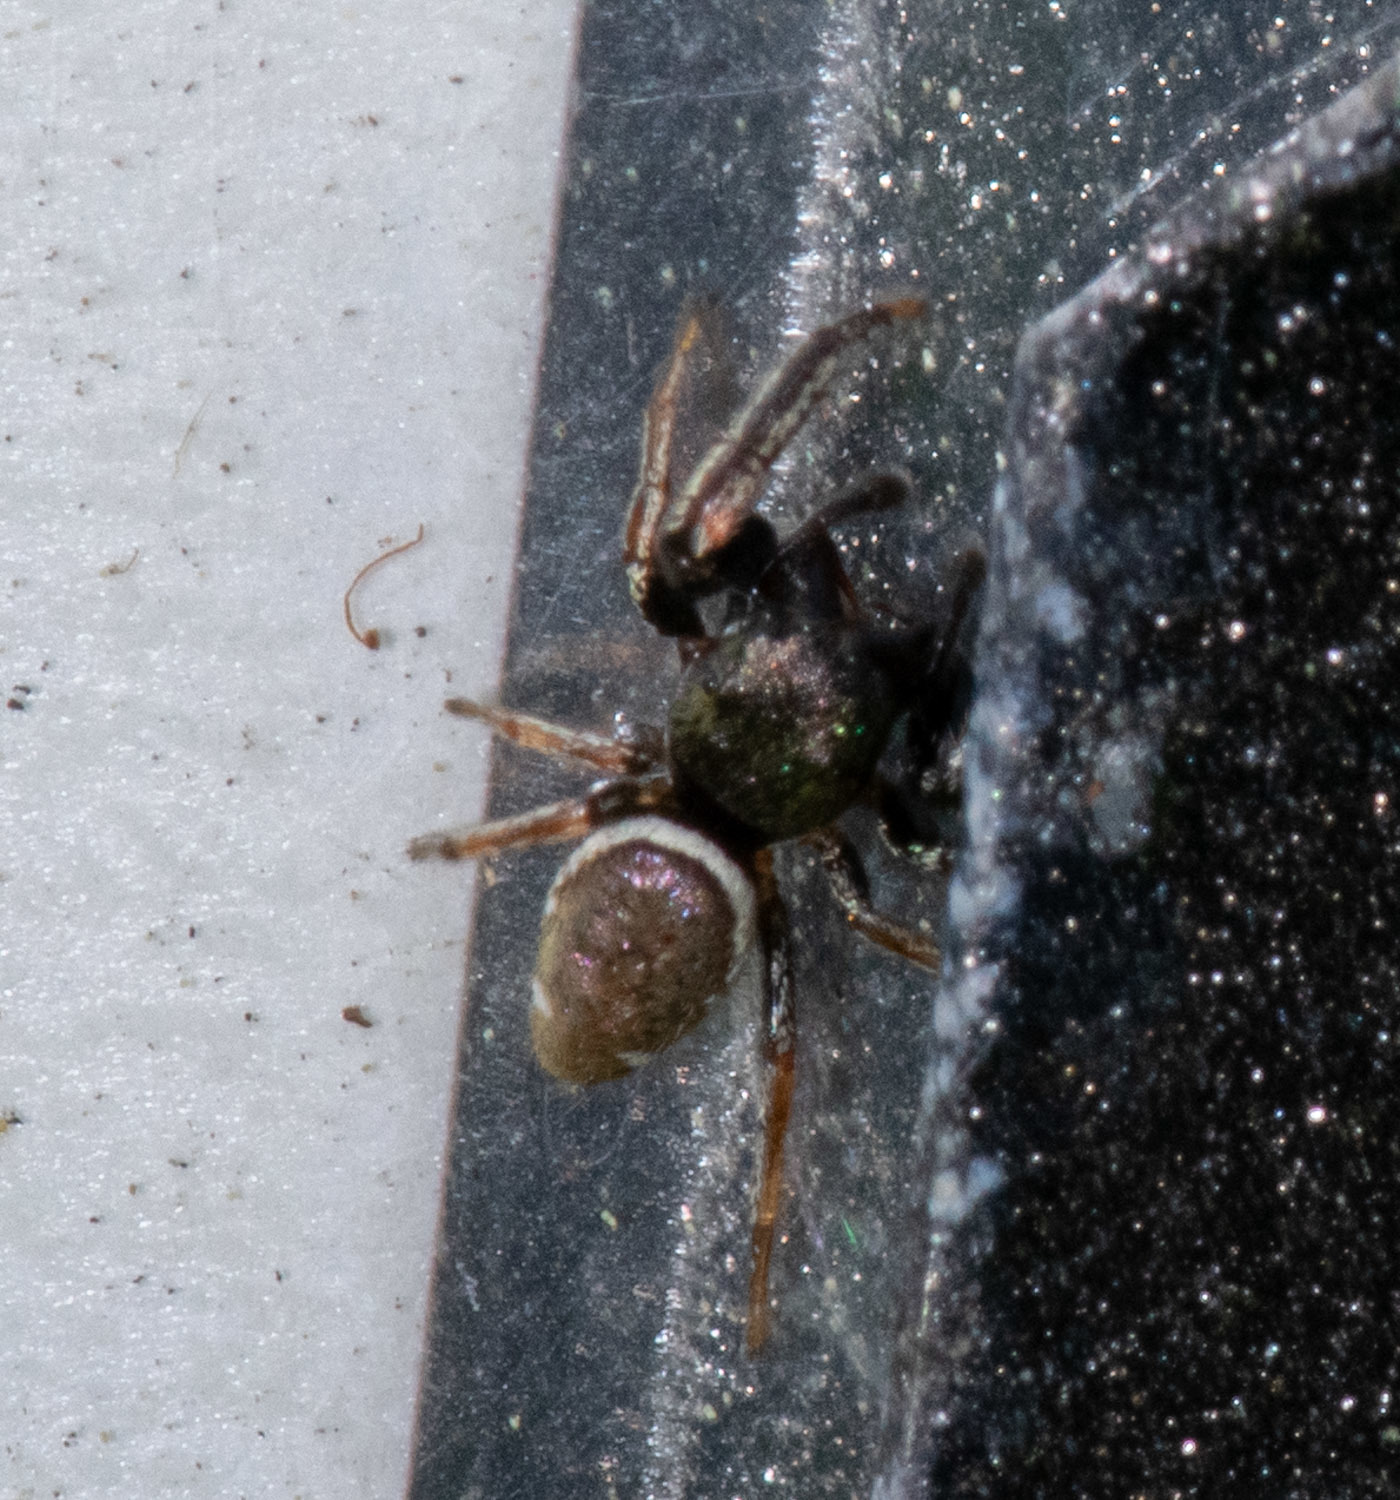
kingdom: Animalia
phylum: Arthropoda
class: Arachnida
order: Araneae
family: Salticidae
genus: Sassacus
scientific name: Sassacus vitis
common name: Jumping spiders
